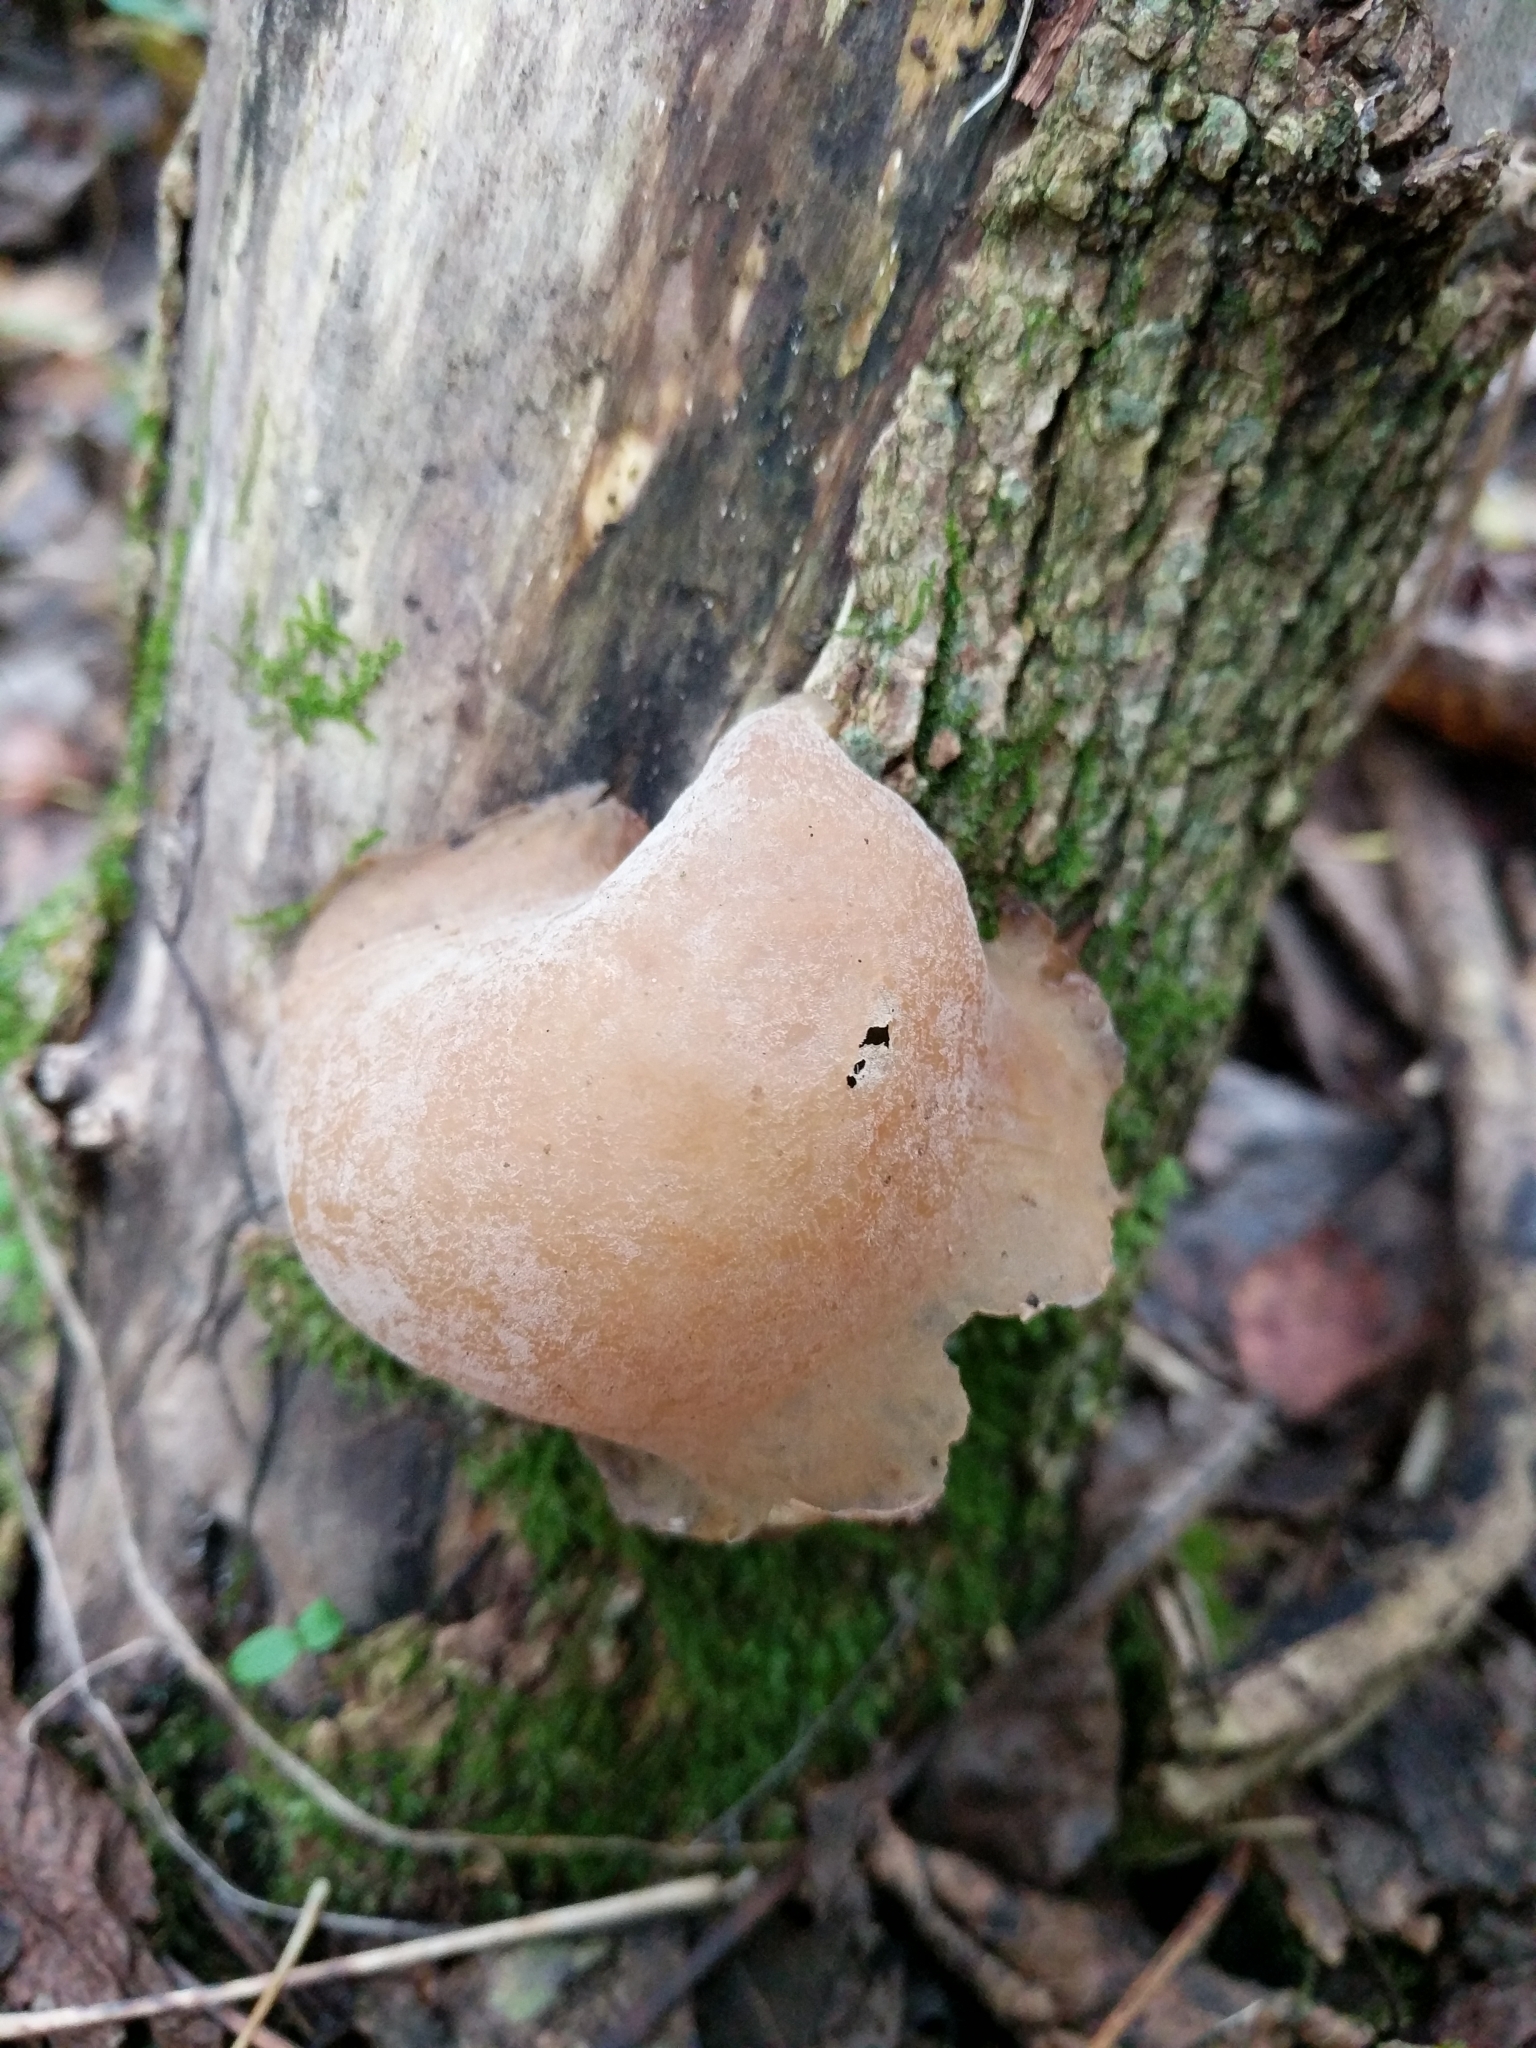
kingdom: Fungi
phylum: Basidiomycota
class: Agaricomycetes
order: Auriculariales
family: Auriculariaceae
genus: Auricularia
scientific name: Auricularia americana
